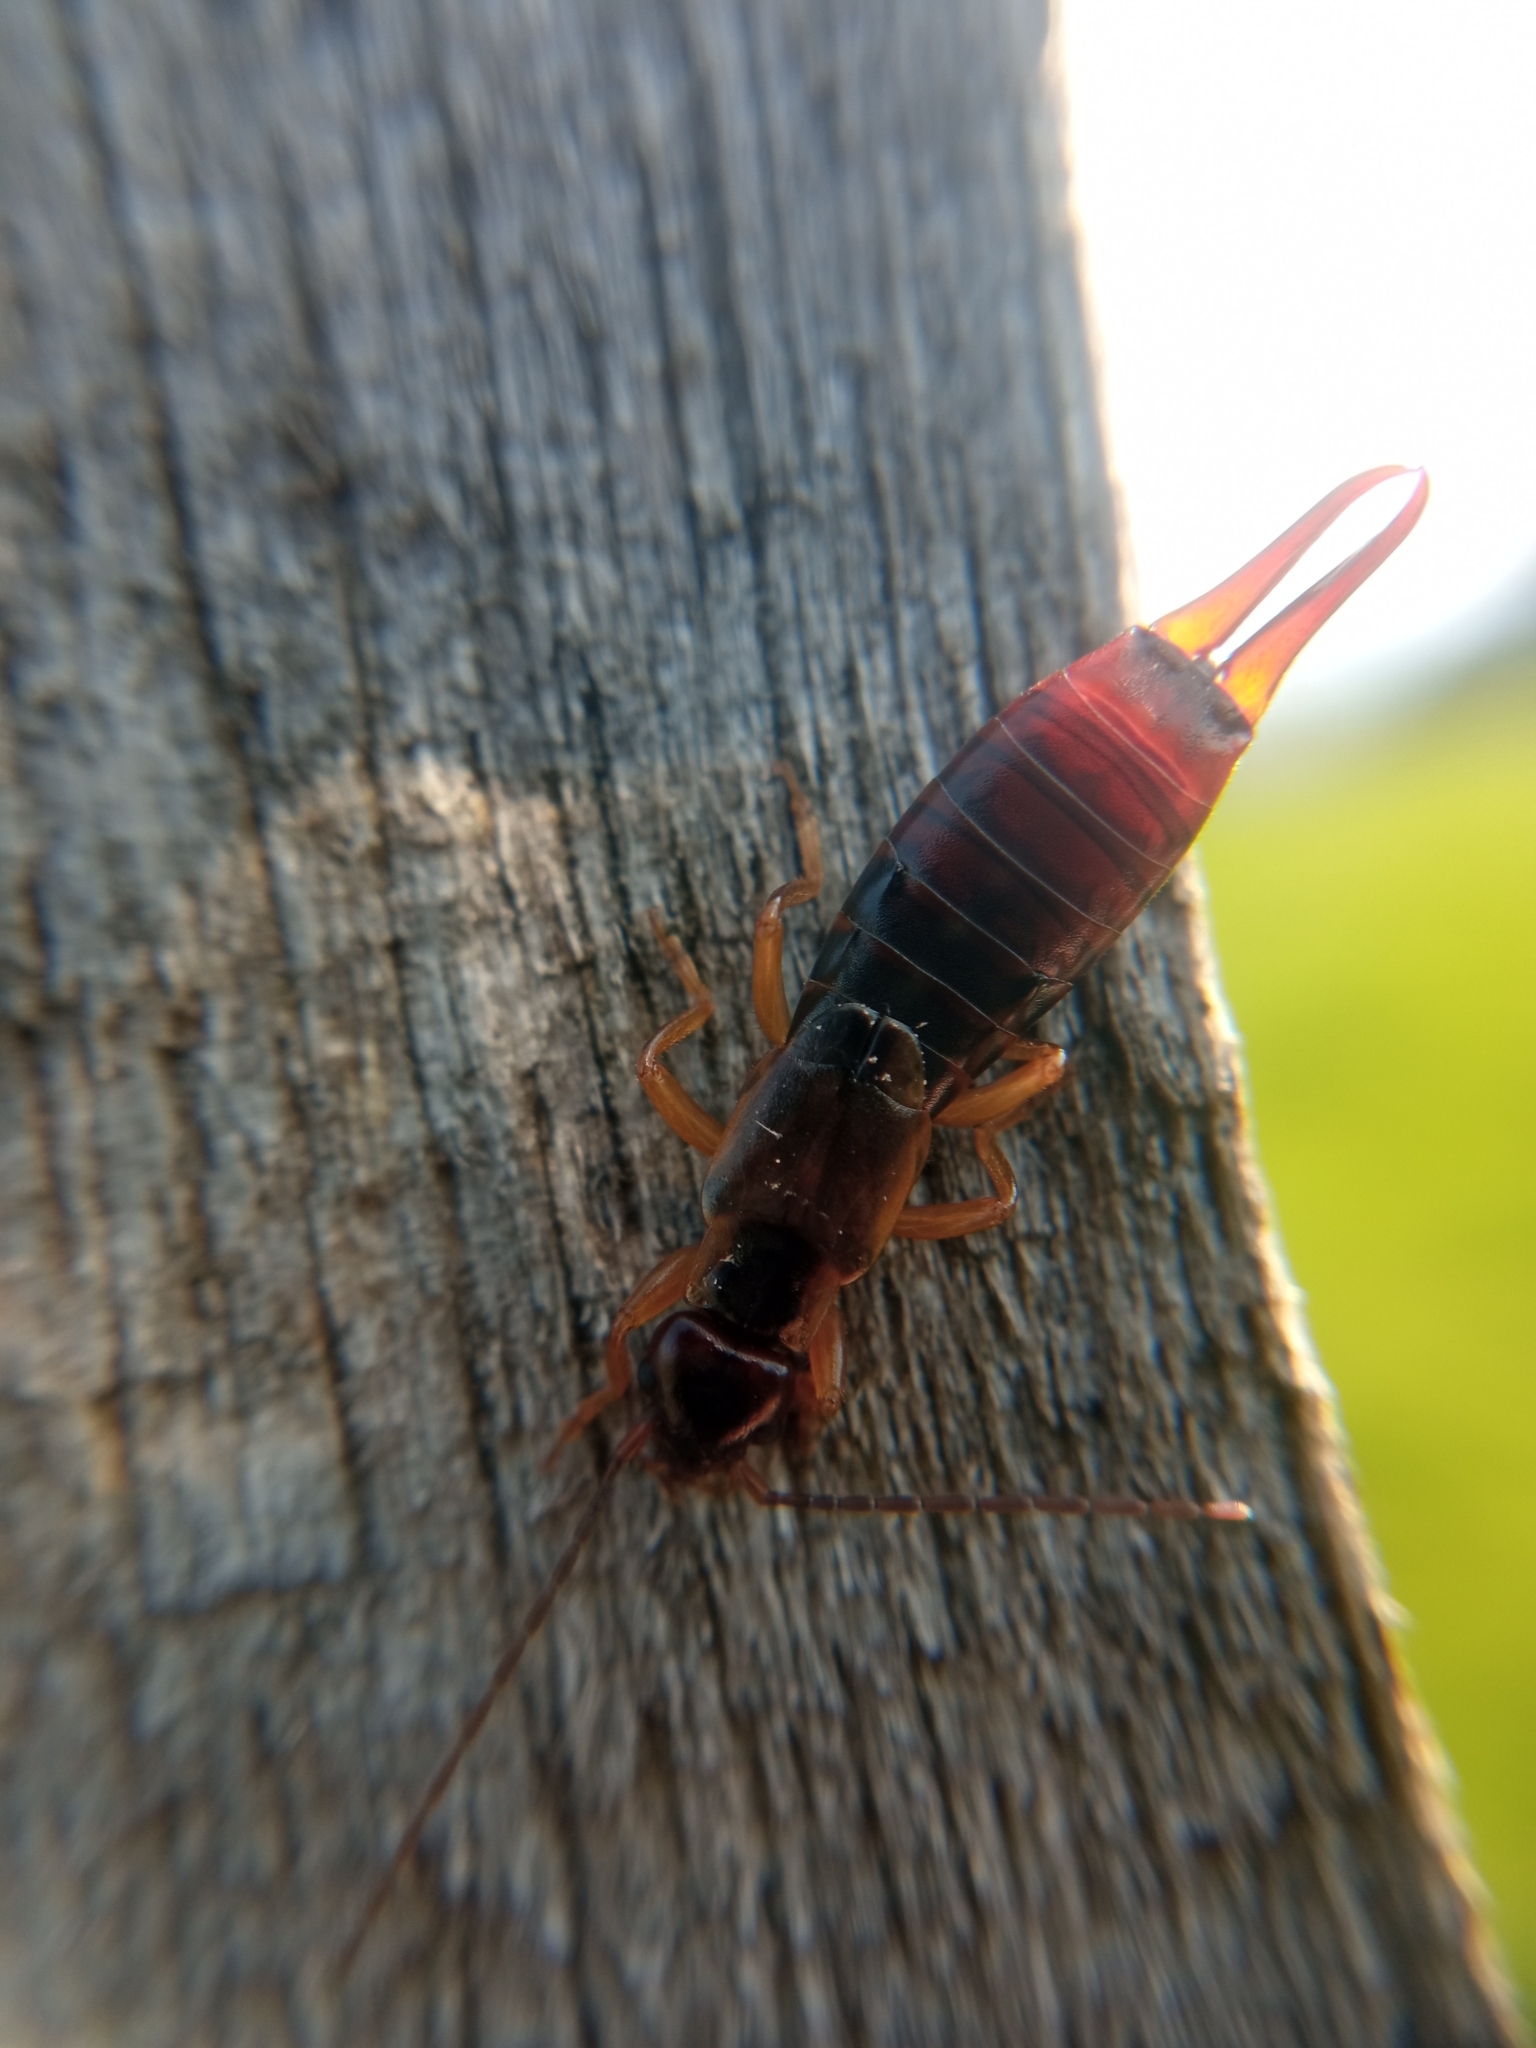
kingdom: Animalia
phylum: Arthropoda
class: Insecta
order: Dermaptera
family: Forficulidae
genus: Forficula
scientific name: Forficula
